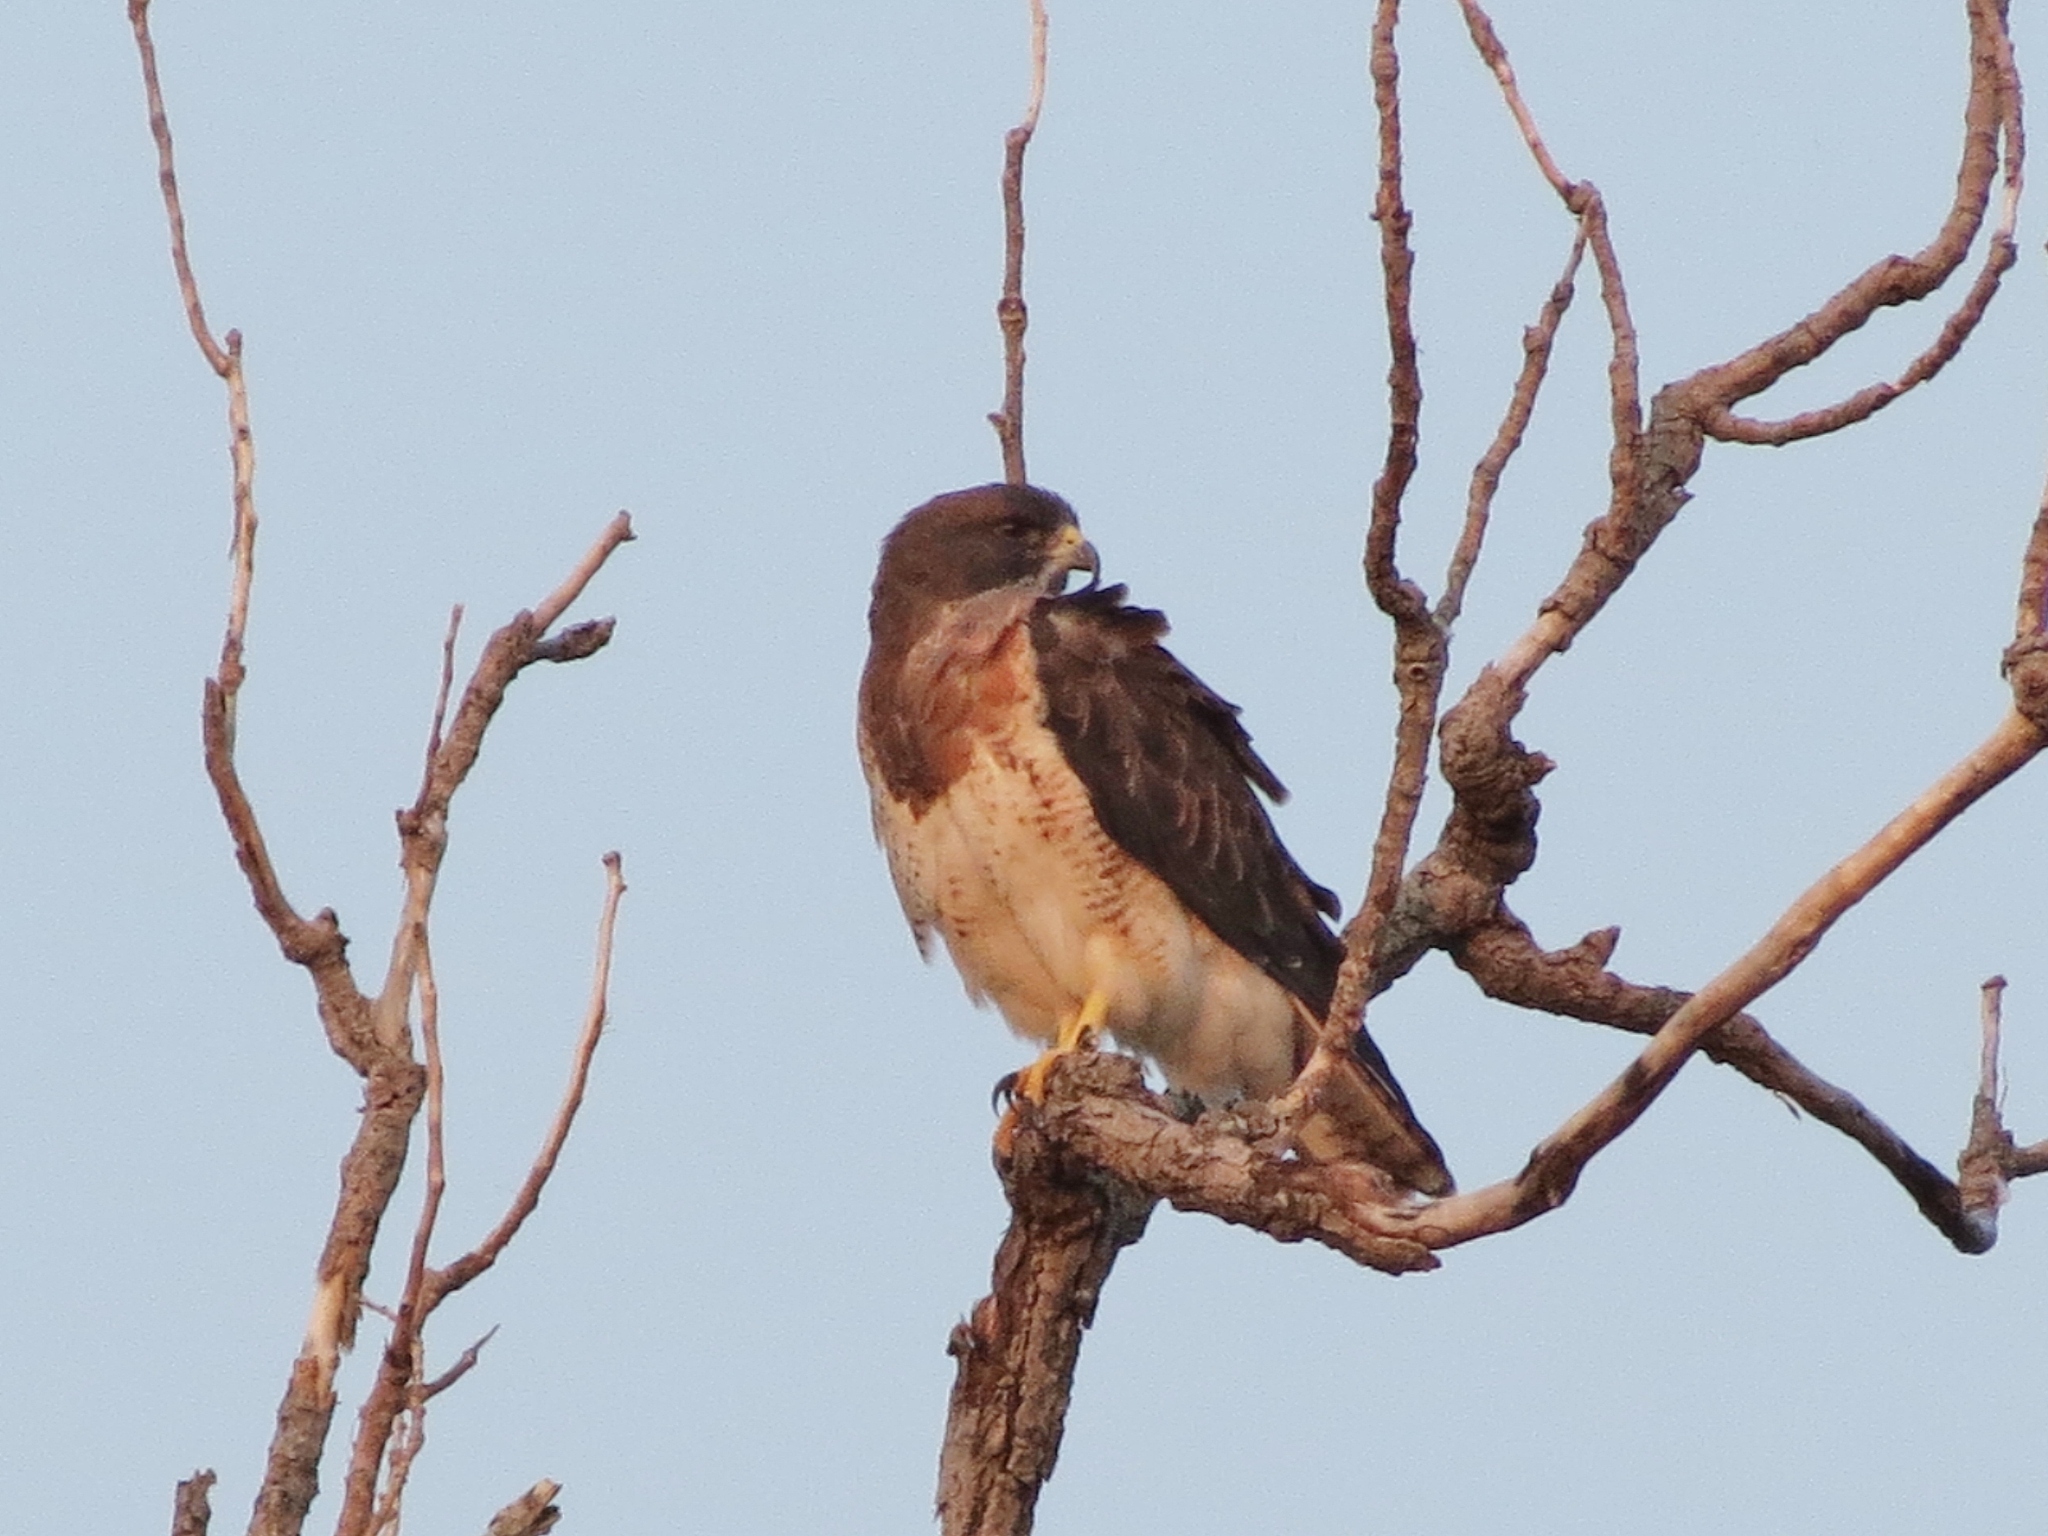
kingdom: Animalia
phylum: Chordata
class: Aves
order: Accipitriformes
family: Accipitridae
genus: Buteo
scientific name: Buteo swainsoni
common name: Swainson's hawk
